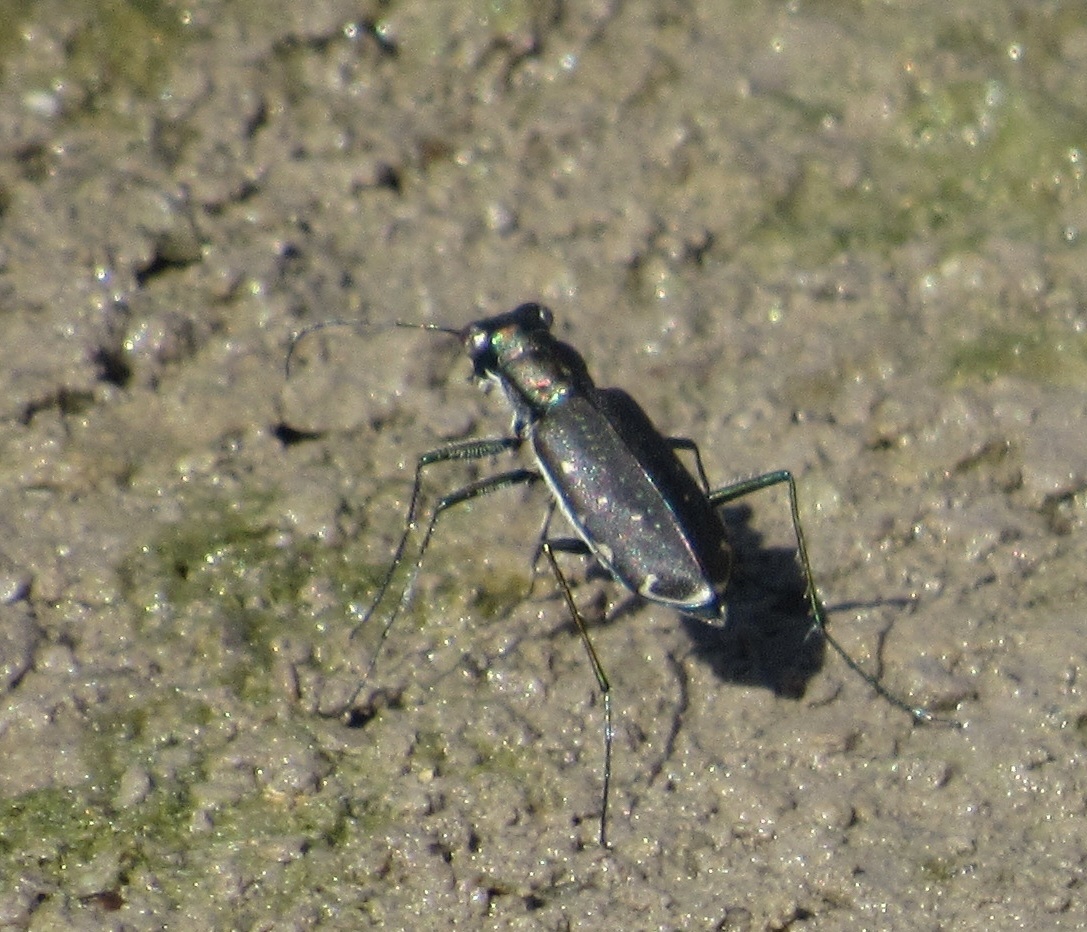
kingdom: Animalia
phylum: Arthropoda
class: Insecta
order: Coleoptera
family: Carabidae
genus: Cicindela
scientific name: Cicindela punctulata
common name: Punctured tiger beetle
